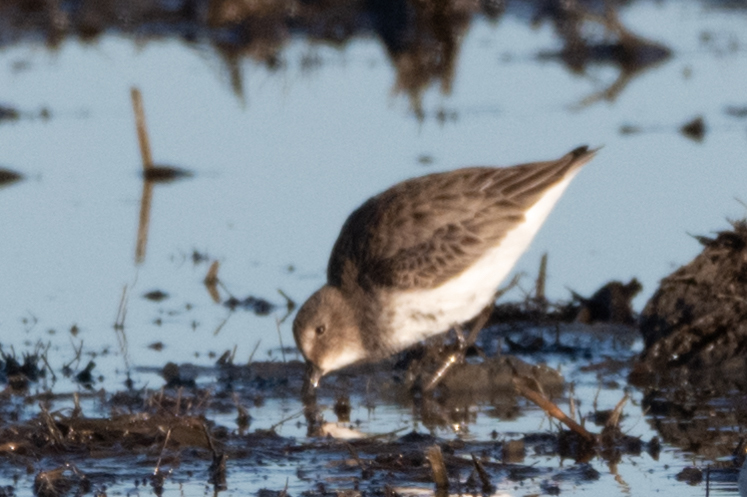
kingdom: Animalia
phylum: Chordata
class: Aves
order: Charadriiformes
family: Scolopacidae
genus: Calidris
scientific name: Calidris alpina
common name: Dunlin
